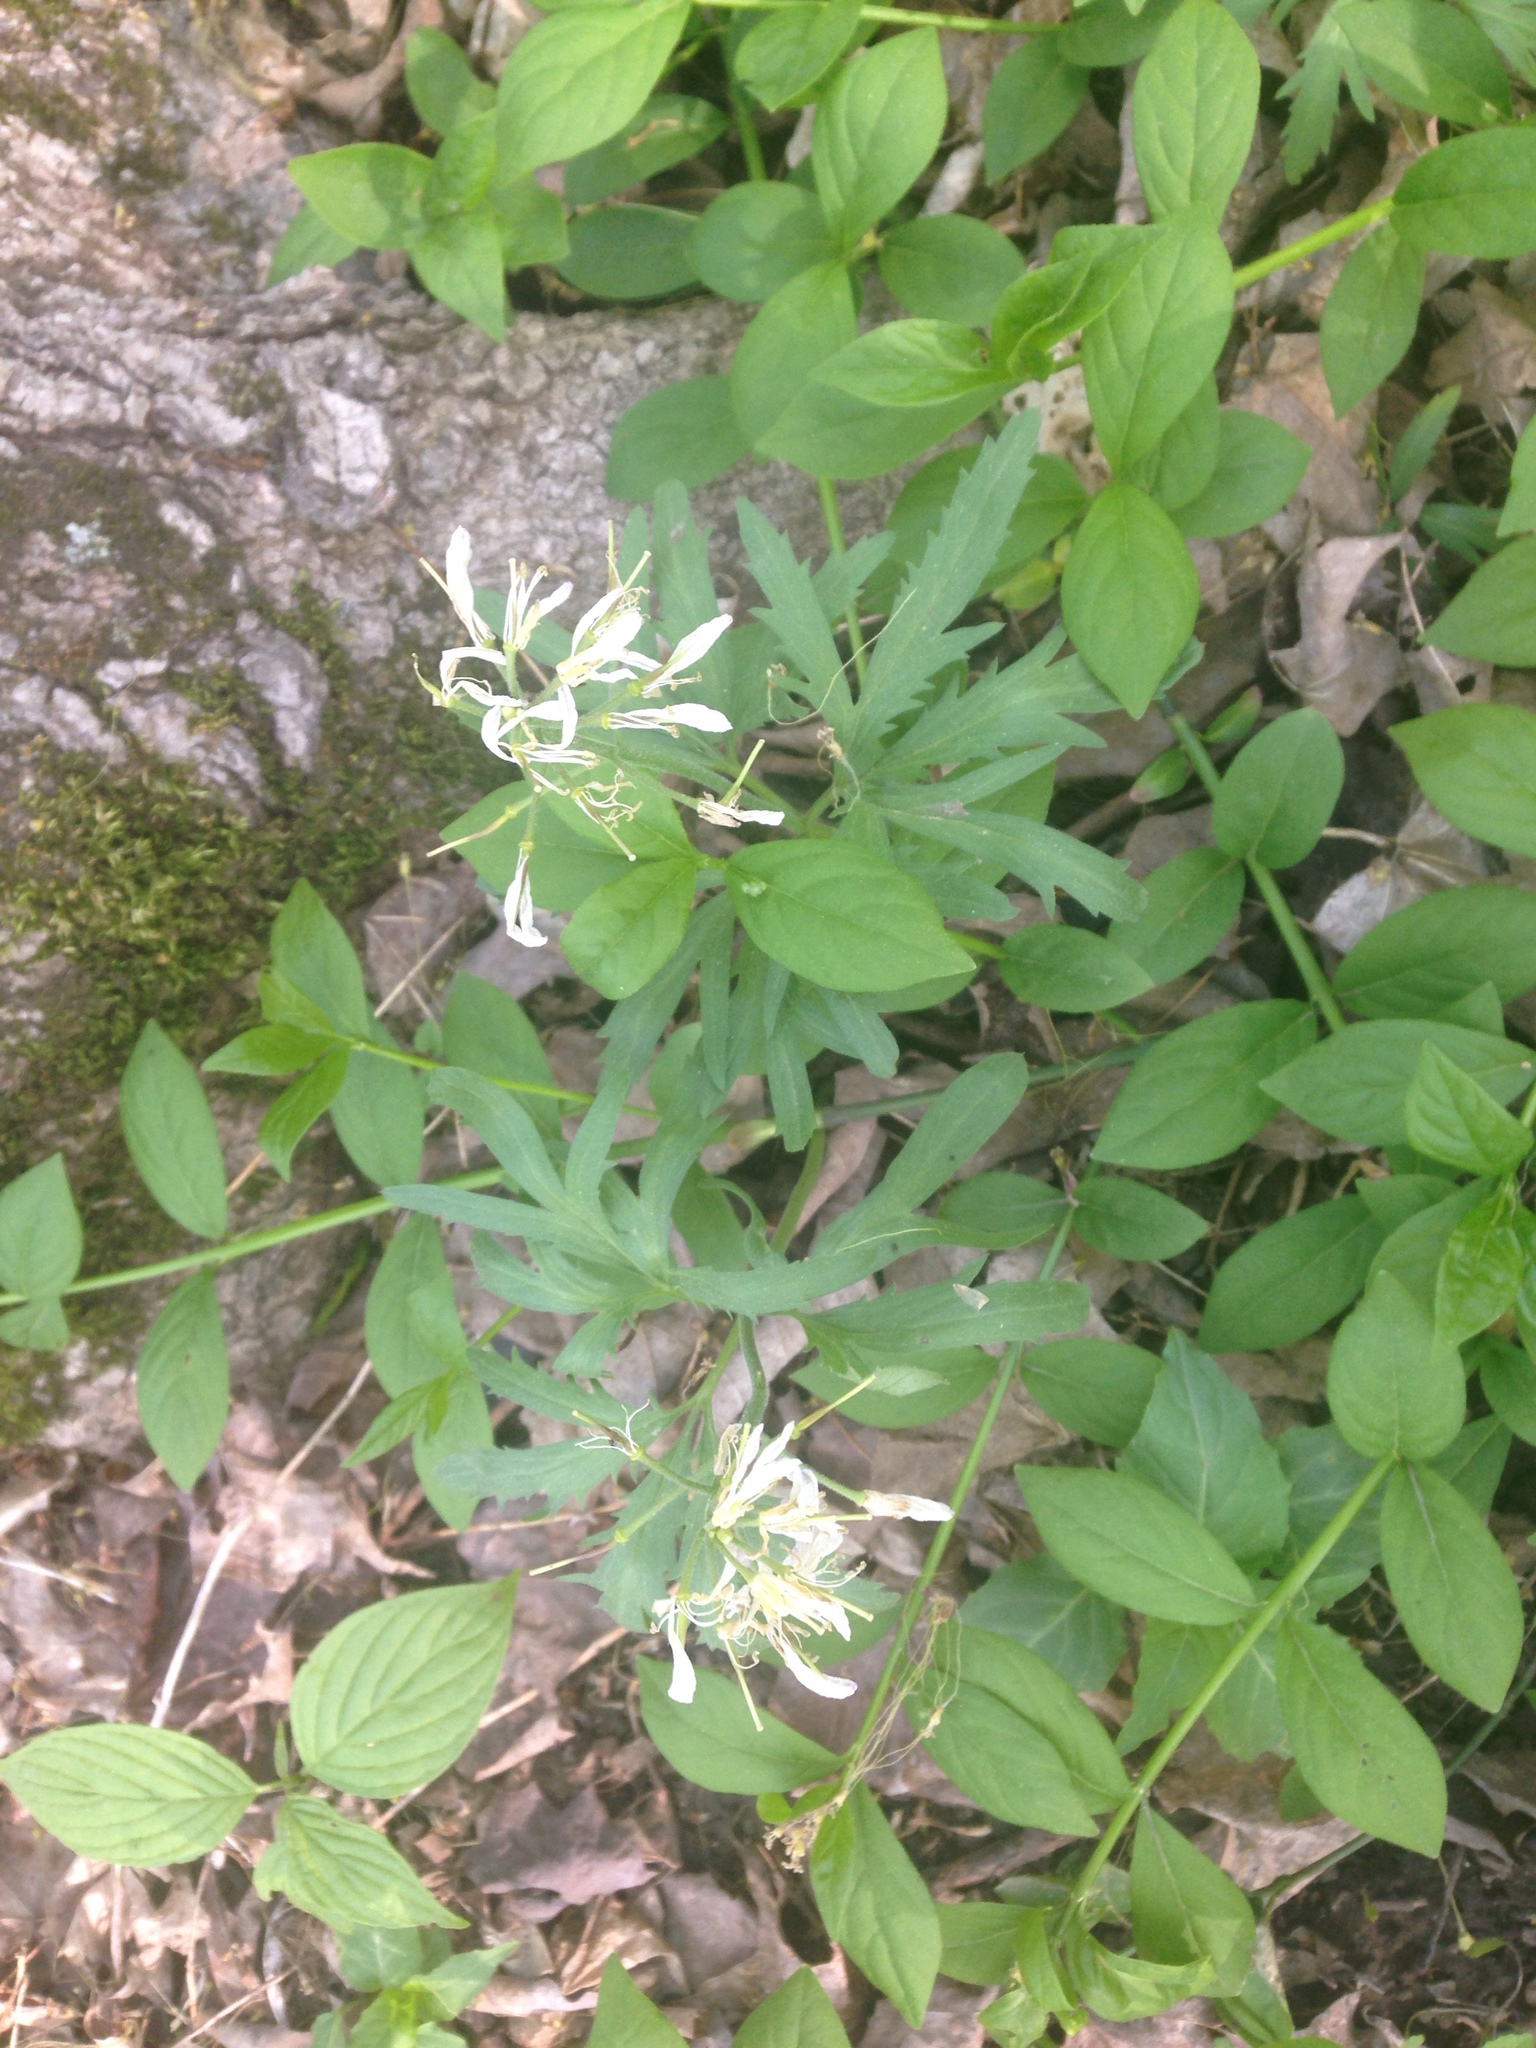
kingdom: Plantae
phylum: Tracheophyta
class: Magnoliopsida
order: Brassicales
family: Brassicaceae
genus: Cardamine
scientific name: Cardamine concatenata
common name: Cut-leaf toothcup
